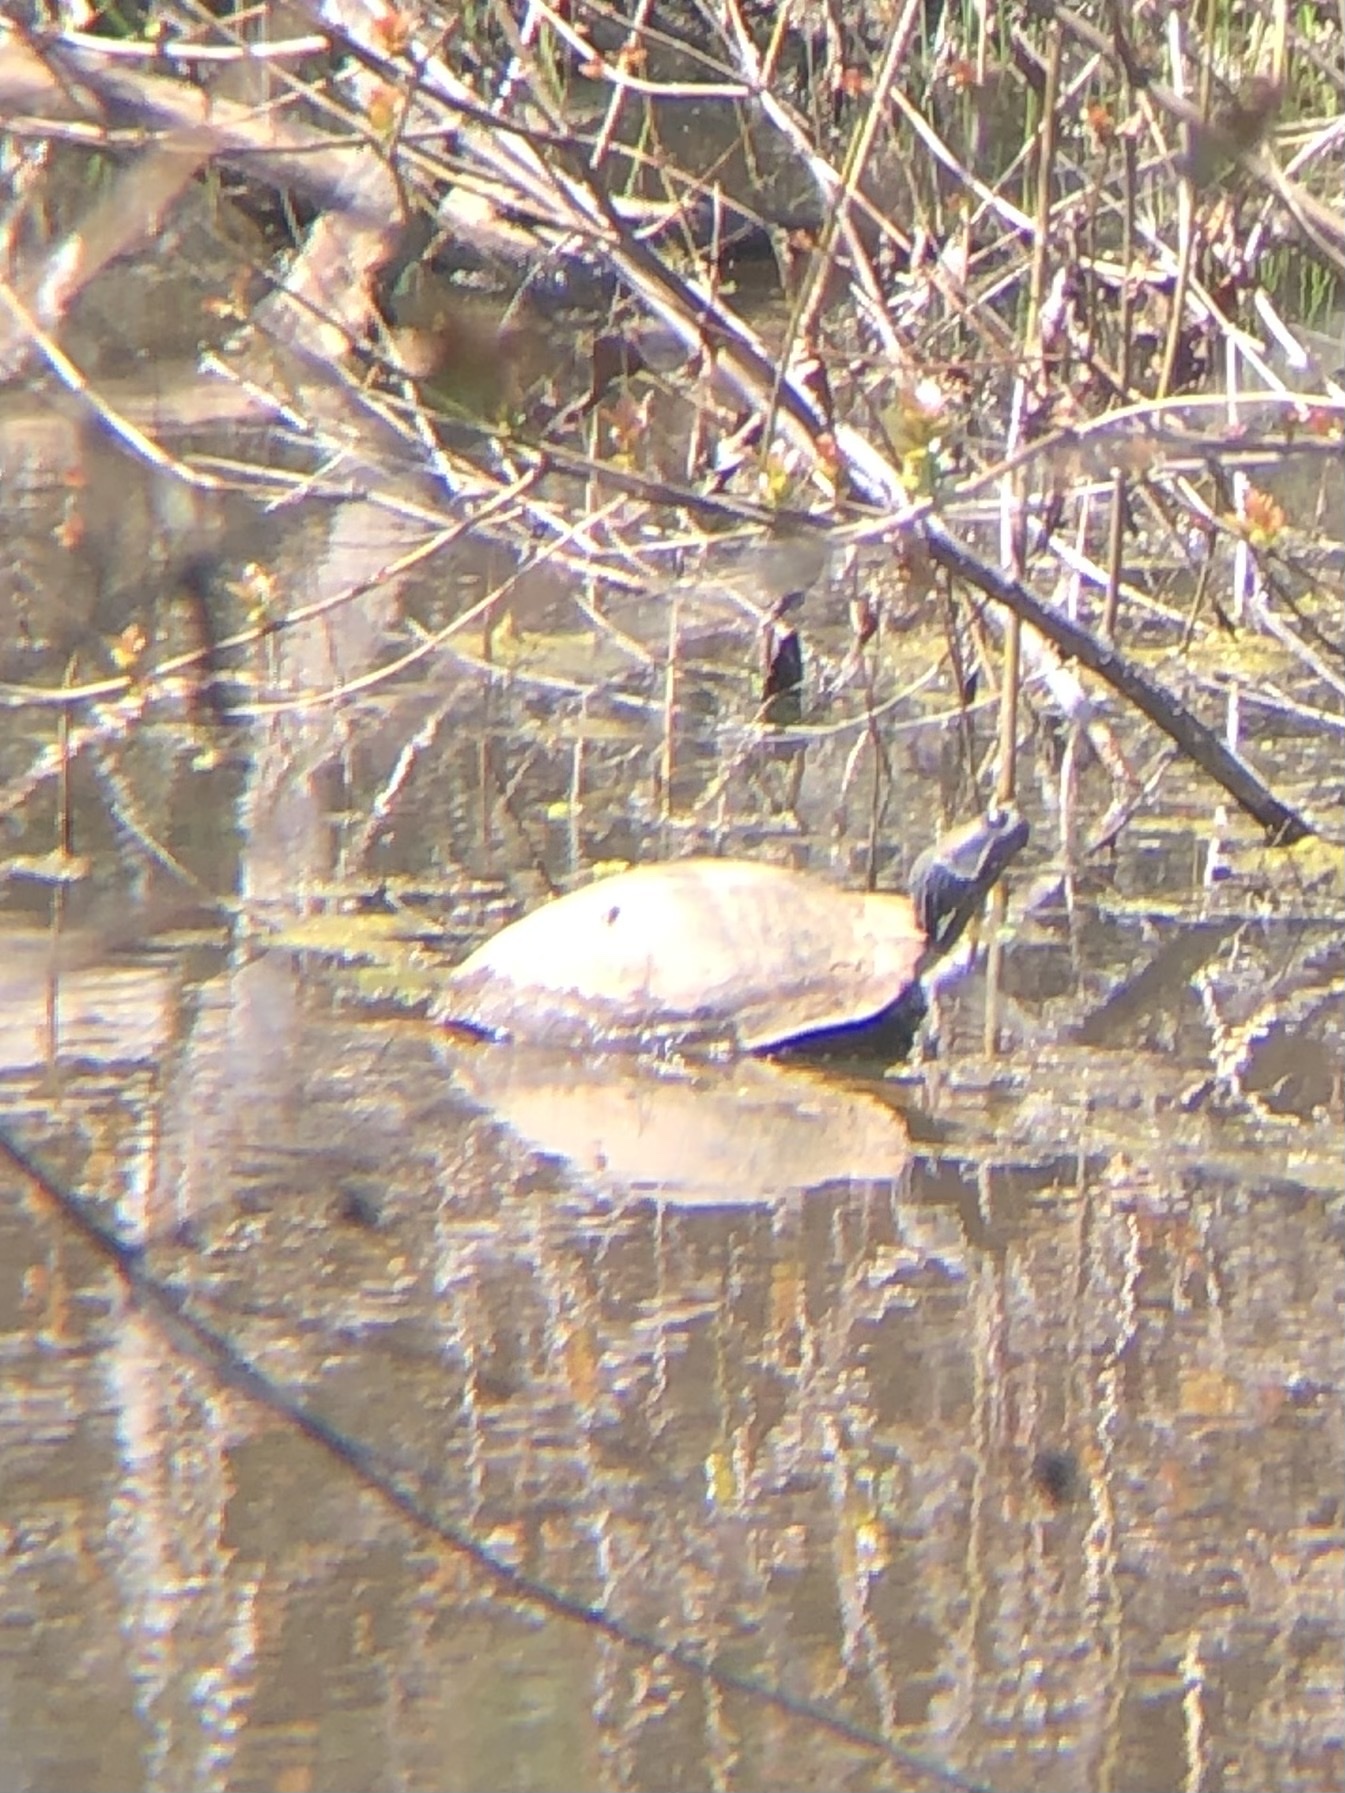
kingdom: Animalia
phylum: Chordata
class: Testudines
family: Emydidae
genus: Trachemys
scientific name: Trachemys scripta
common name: Slider
